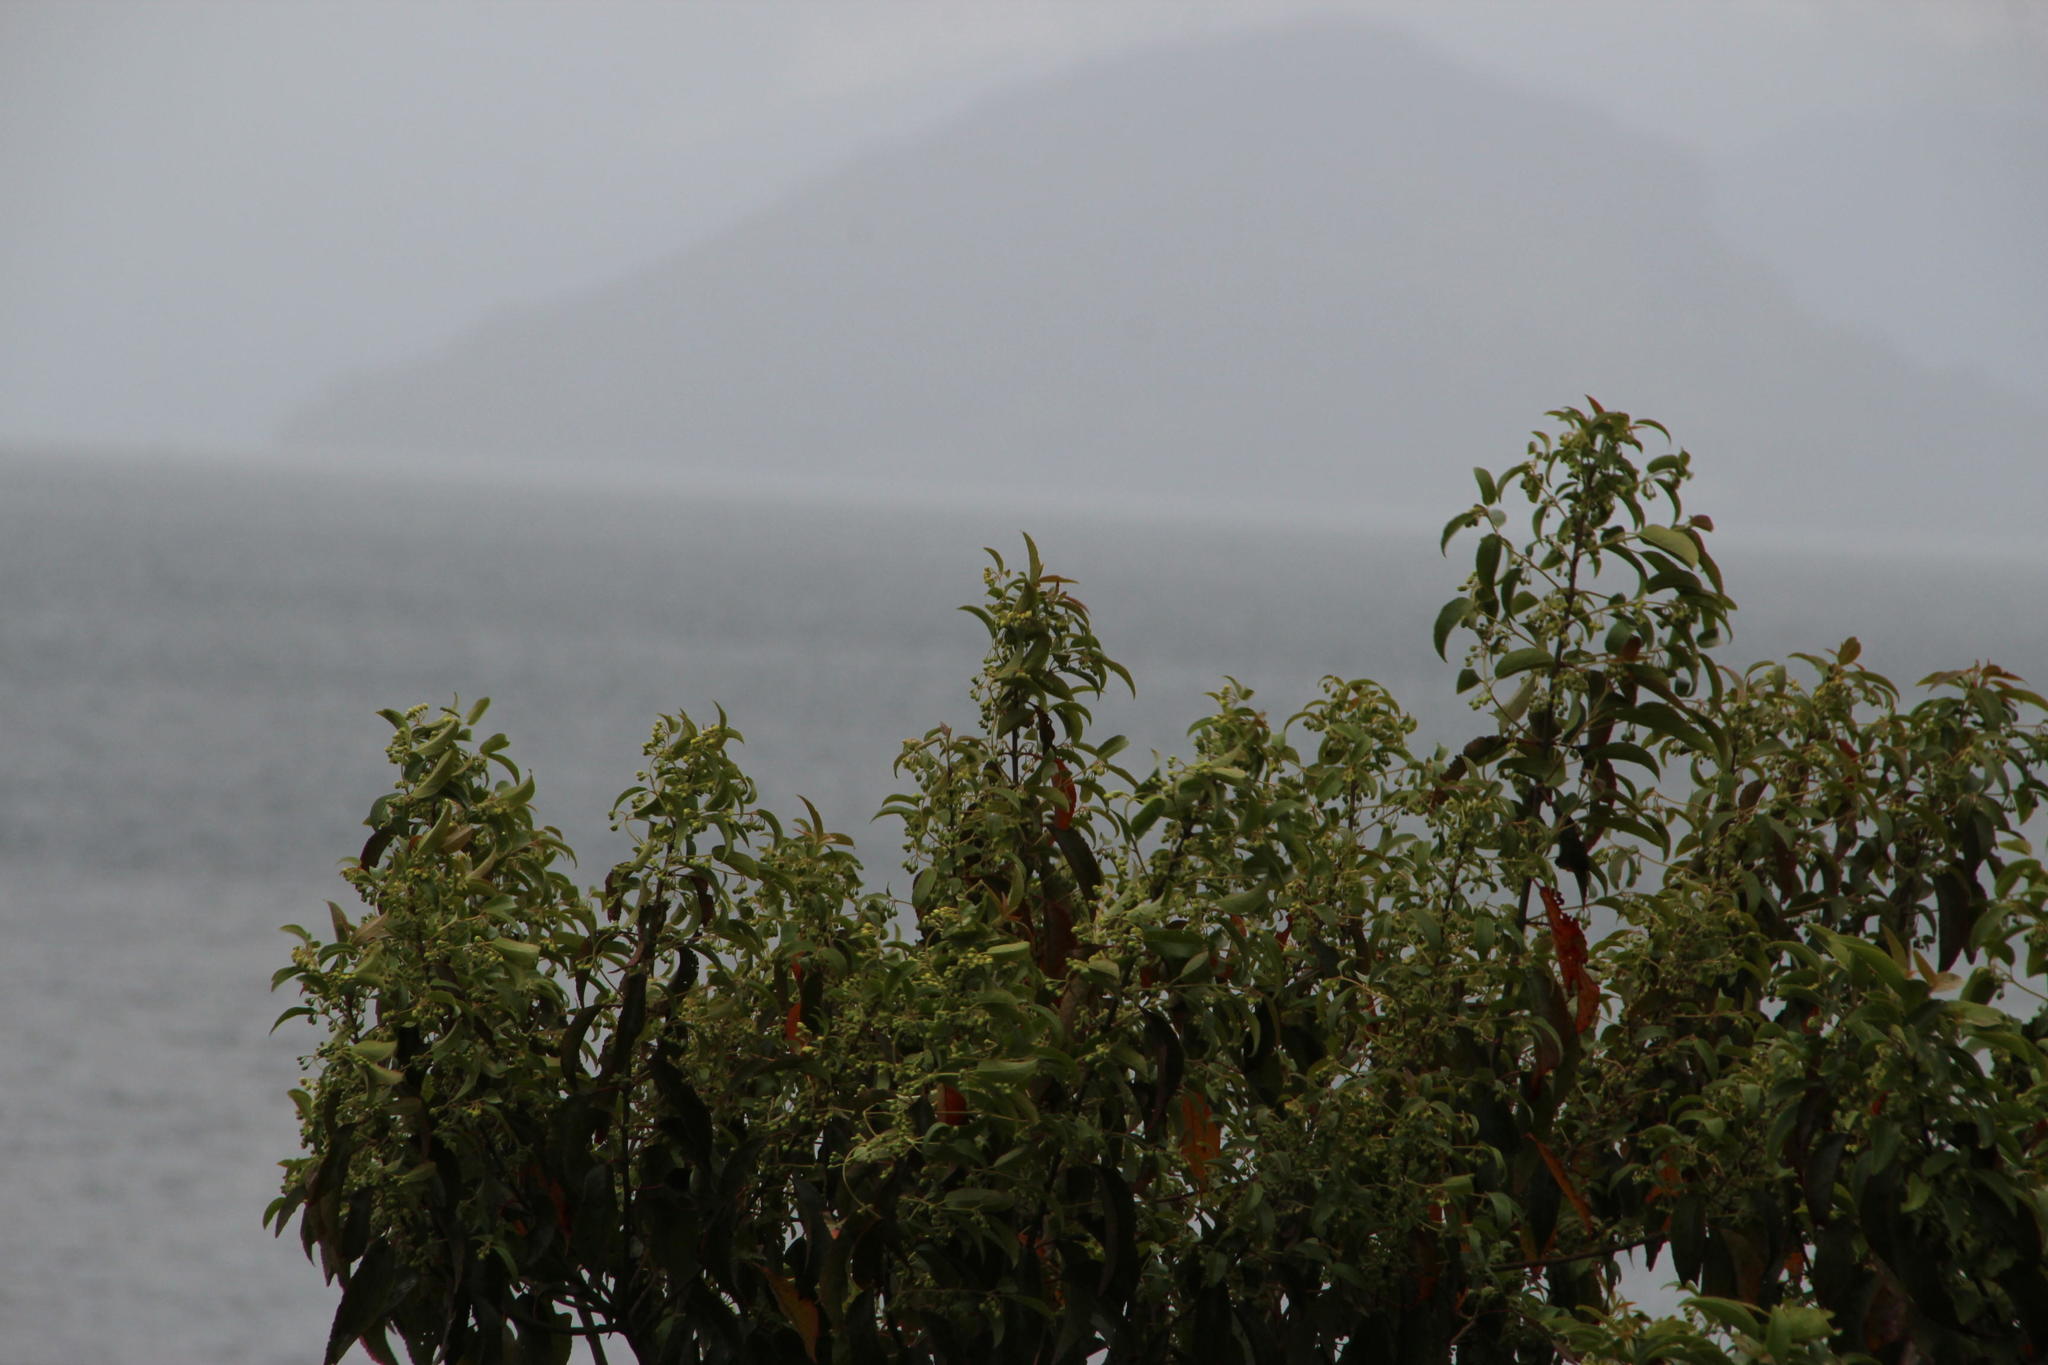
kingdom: Plantae
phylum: Tracheophyta
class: Magnoliopsida
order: Oxalidales
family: Elaeocarpaceae
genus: Aristotelia
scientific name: Aristotelia chilensis
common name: Maquei
